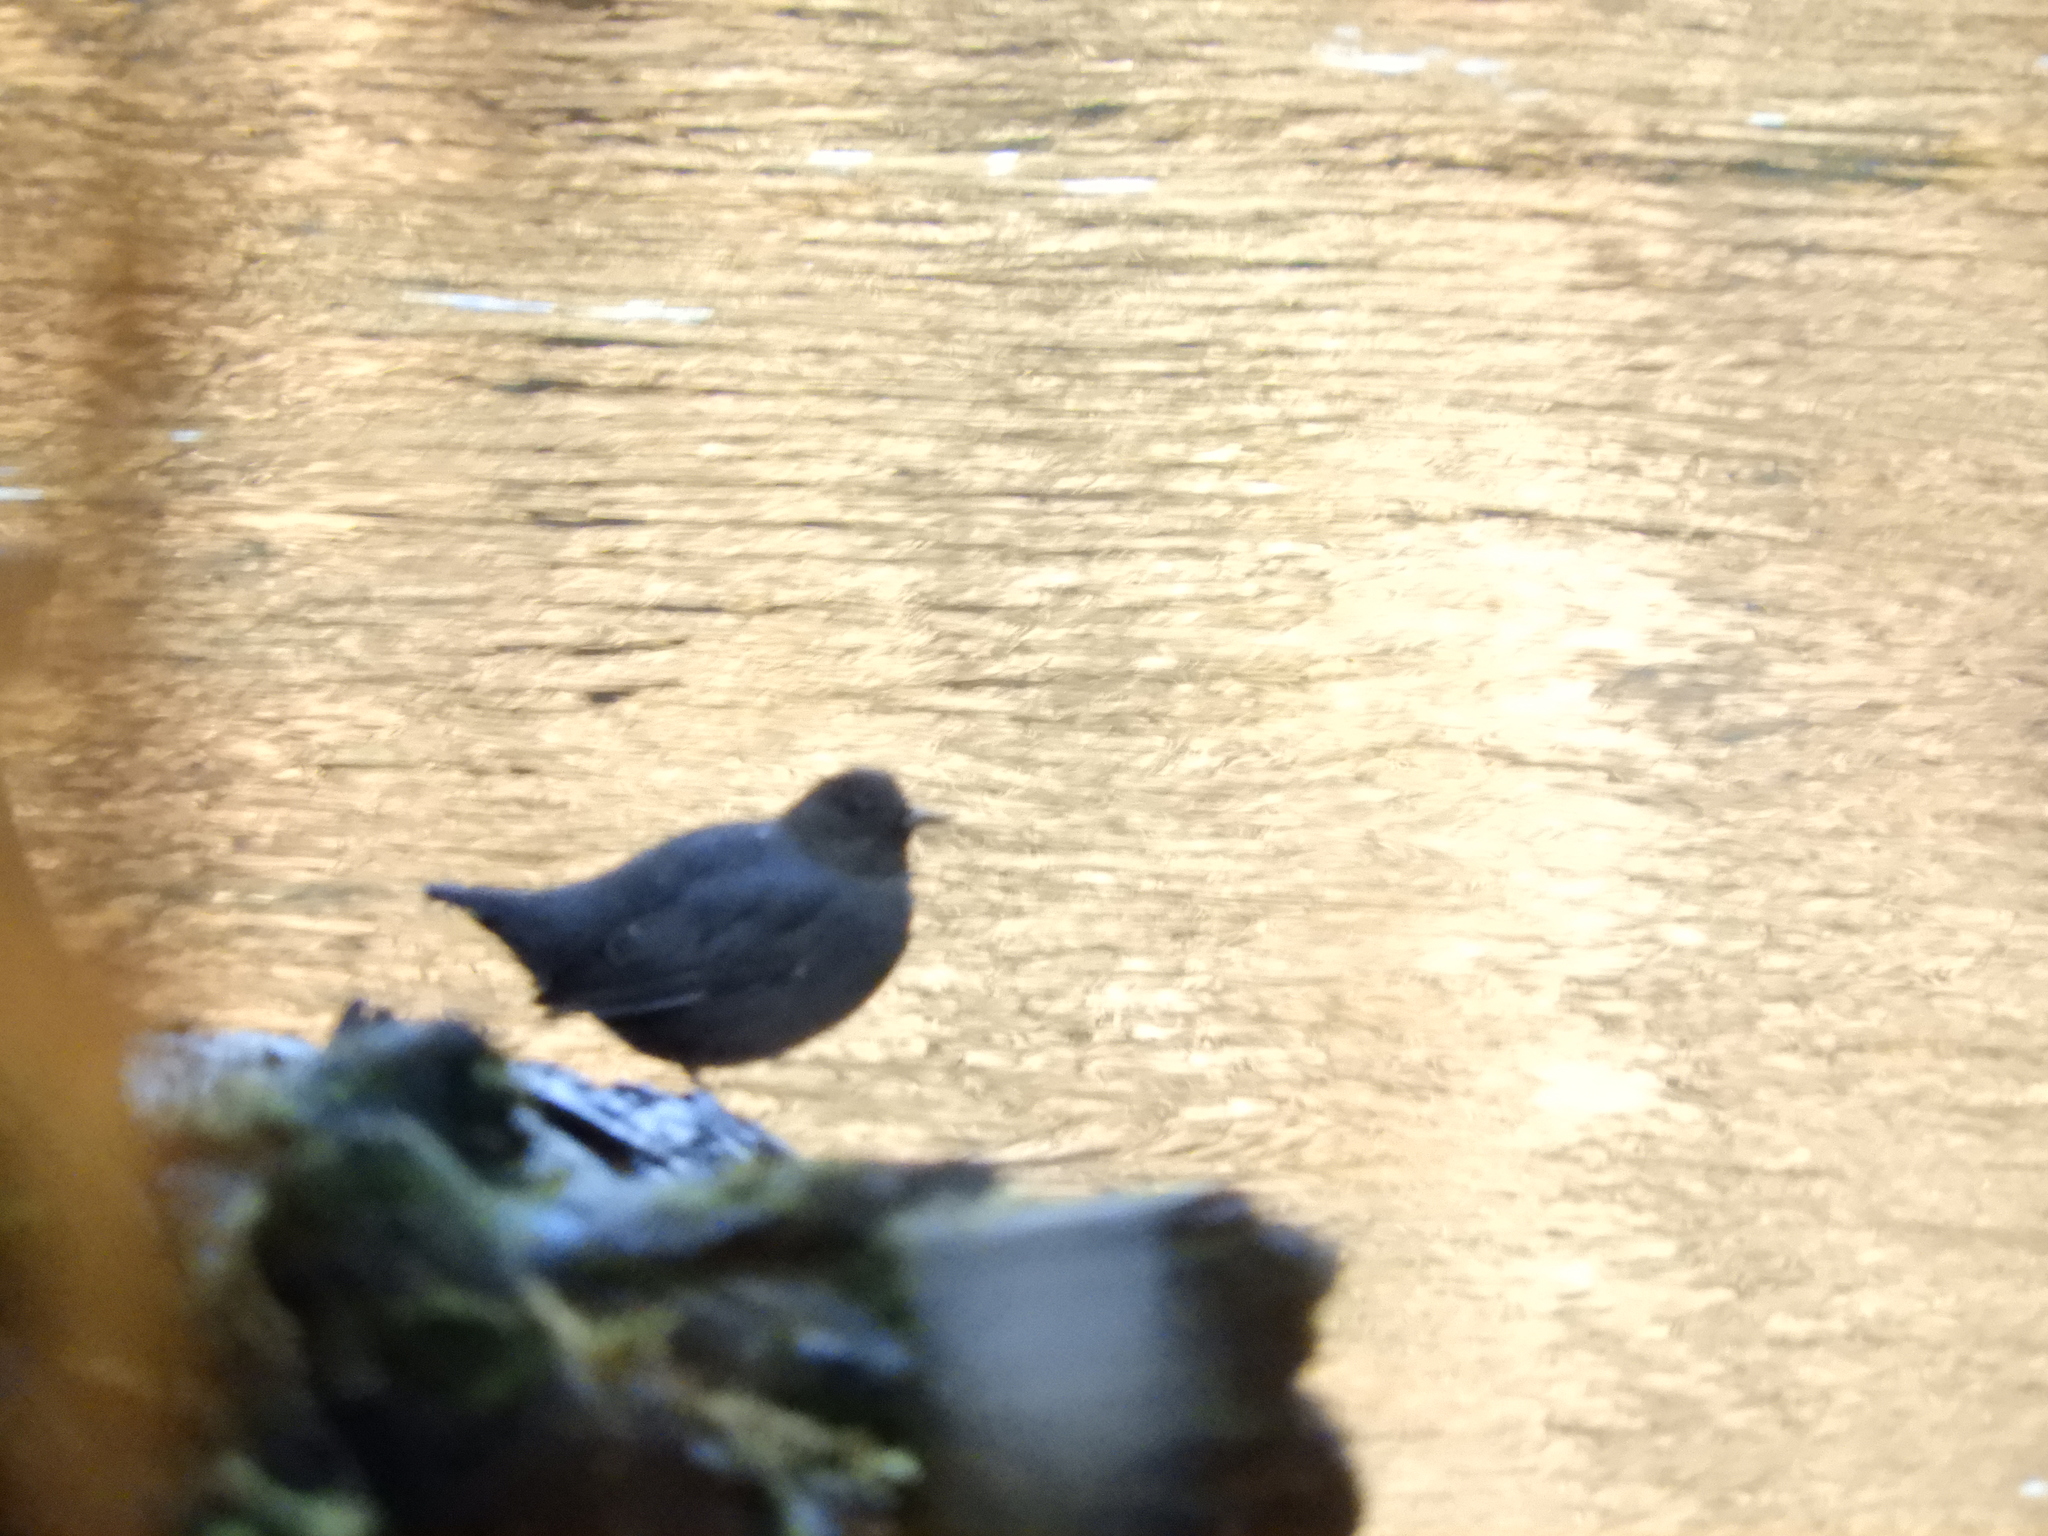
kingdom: Animalia
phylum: Chordata
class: Aves
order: Passeriformes
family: Cinclidae
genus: Cinclus
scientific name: Cinclus mexicanus
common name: American dipper
